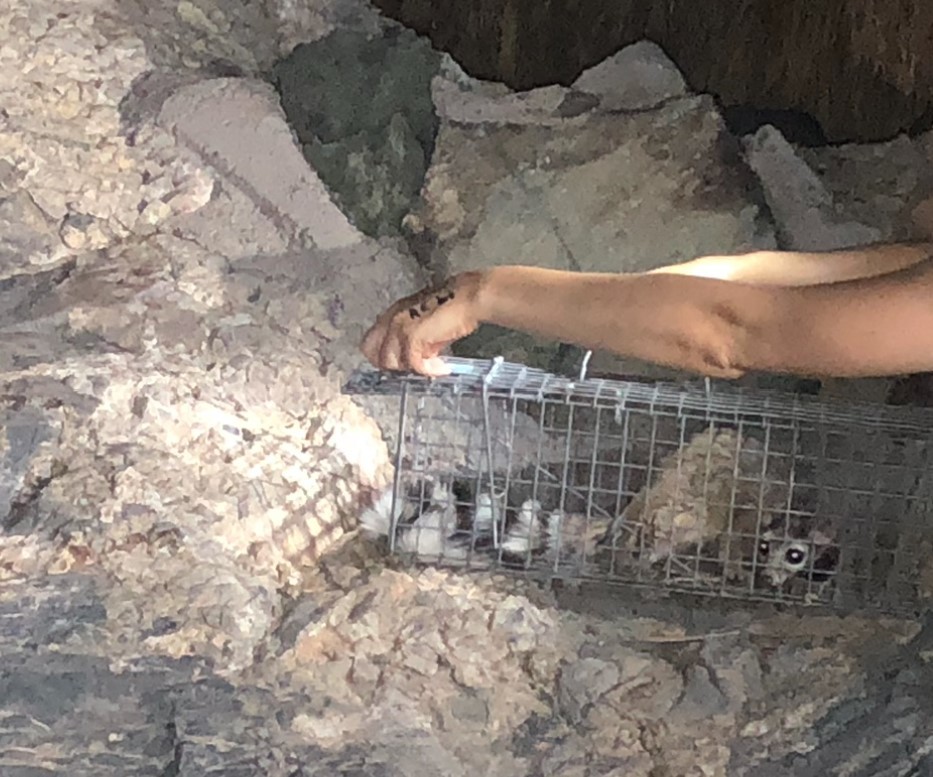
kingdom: Animalia
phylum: Chordata
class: Mammalia
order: Carnivora
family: Procyonidae
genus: Bassariscus
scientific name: Bassariscus astutus
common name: Ringtail
